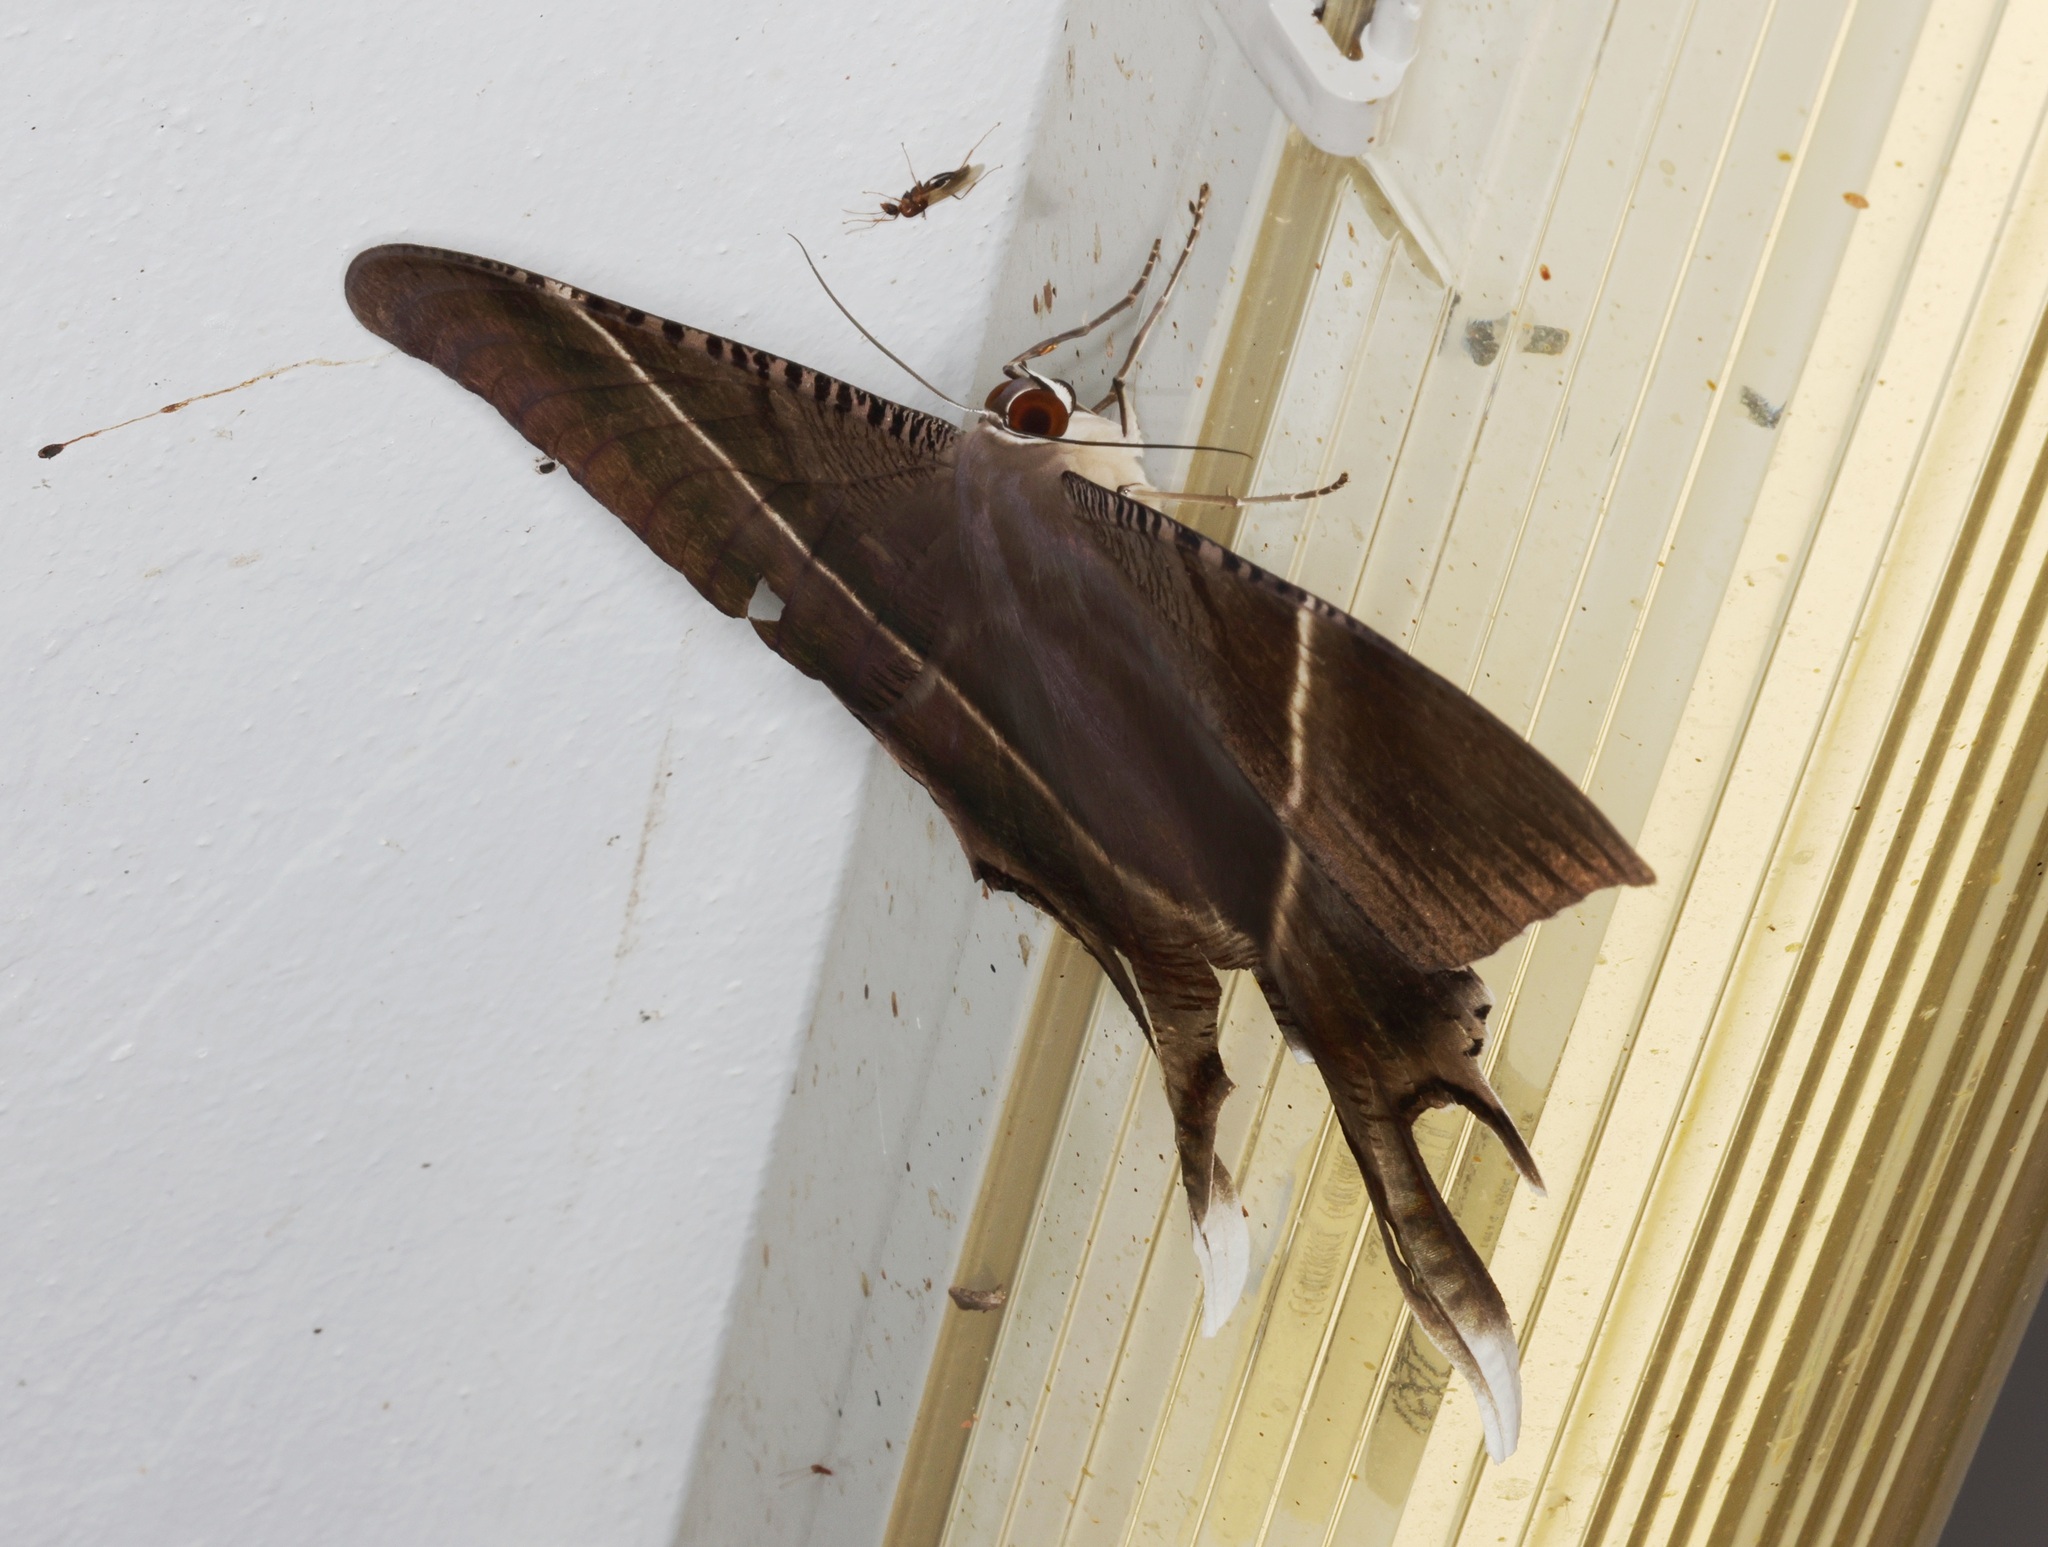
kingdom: Animalia
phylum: Arthropoda
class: Insecta
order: Lepidoptera
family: Uraniidae
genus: Lyssa
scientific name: Lyssa zampa
